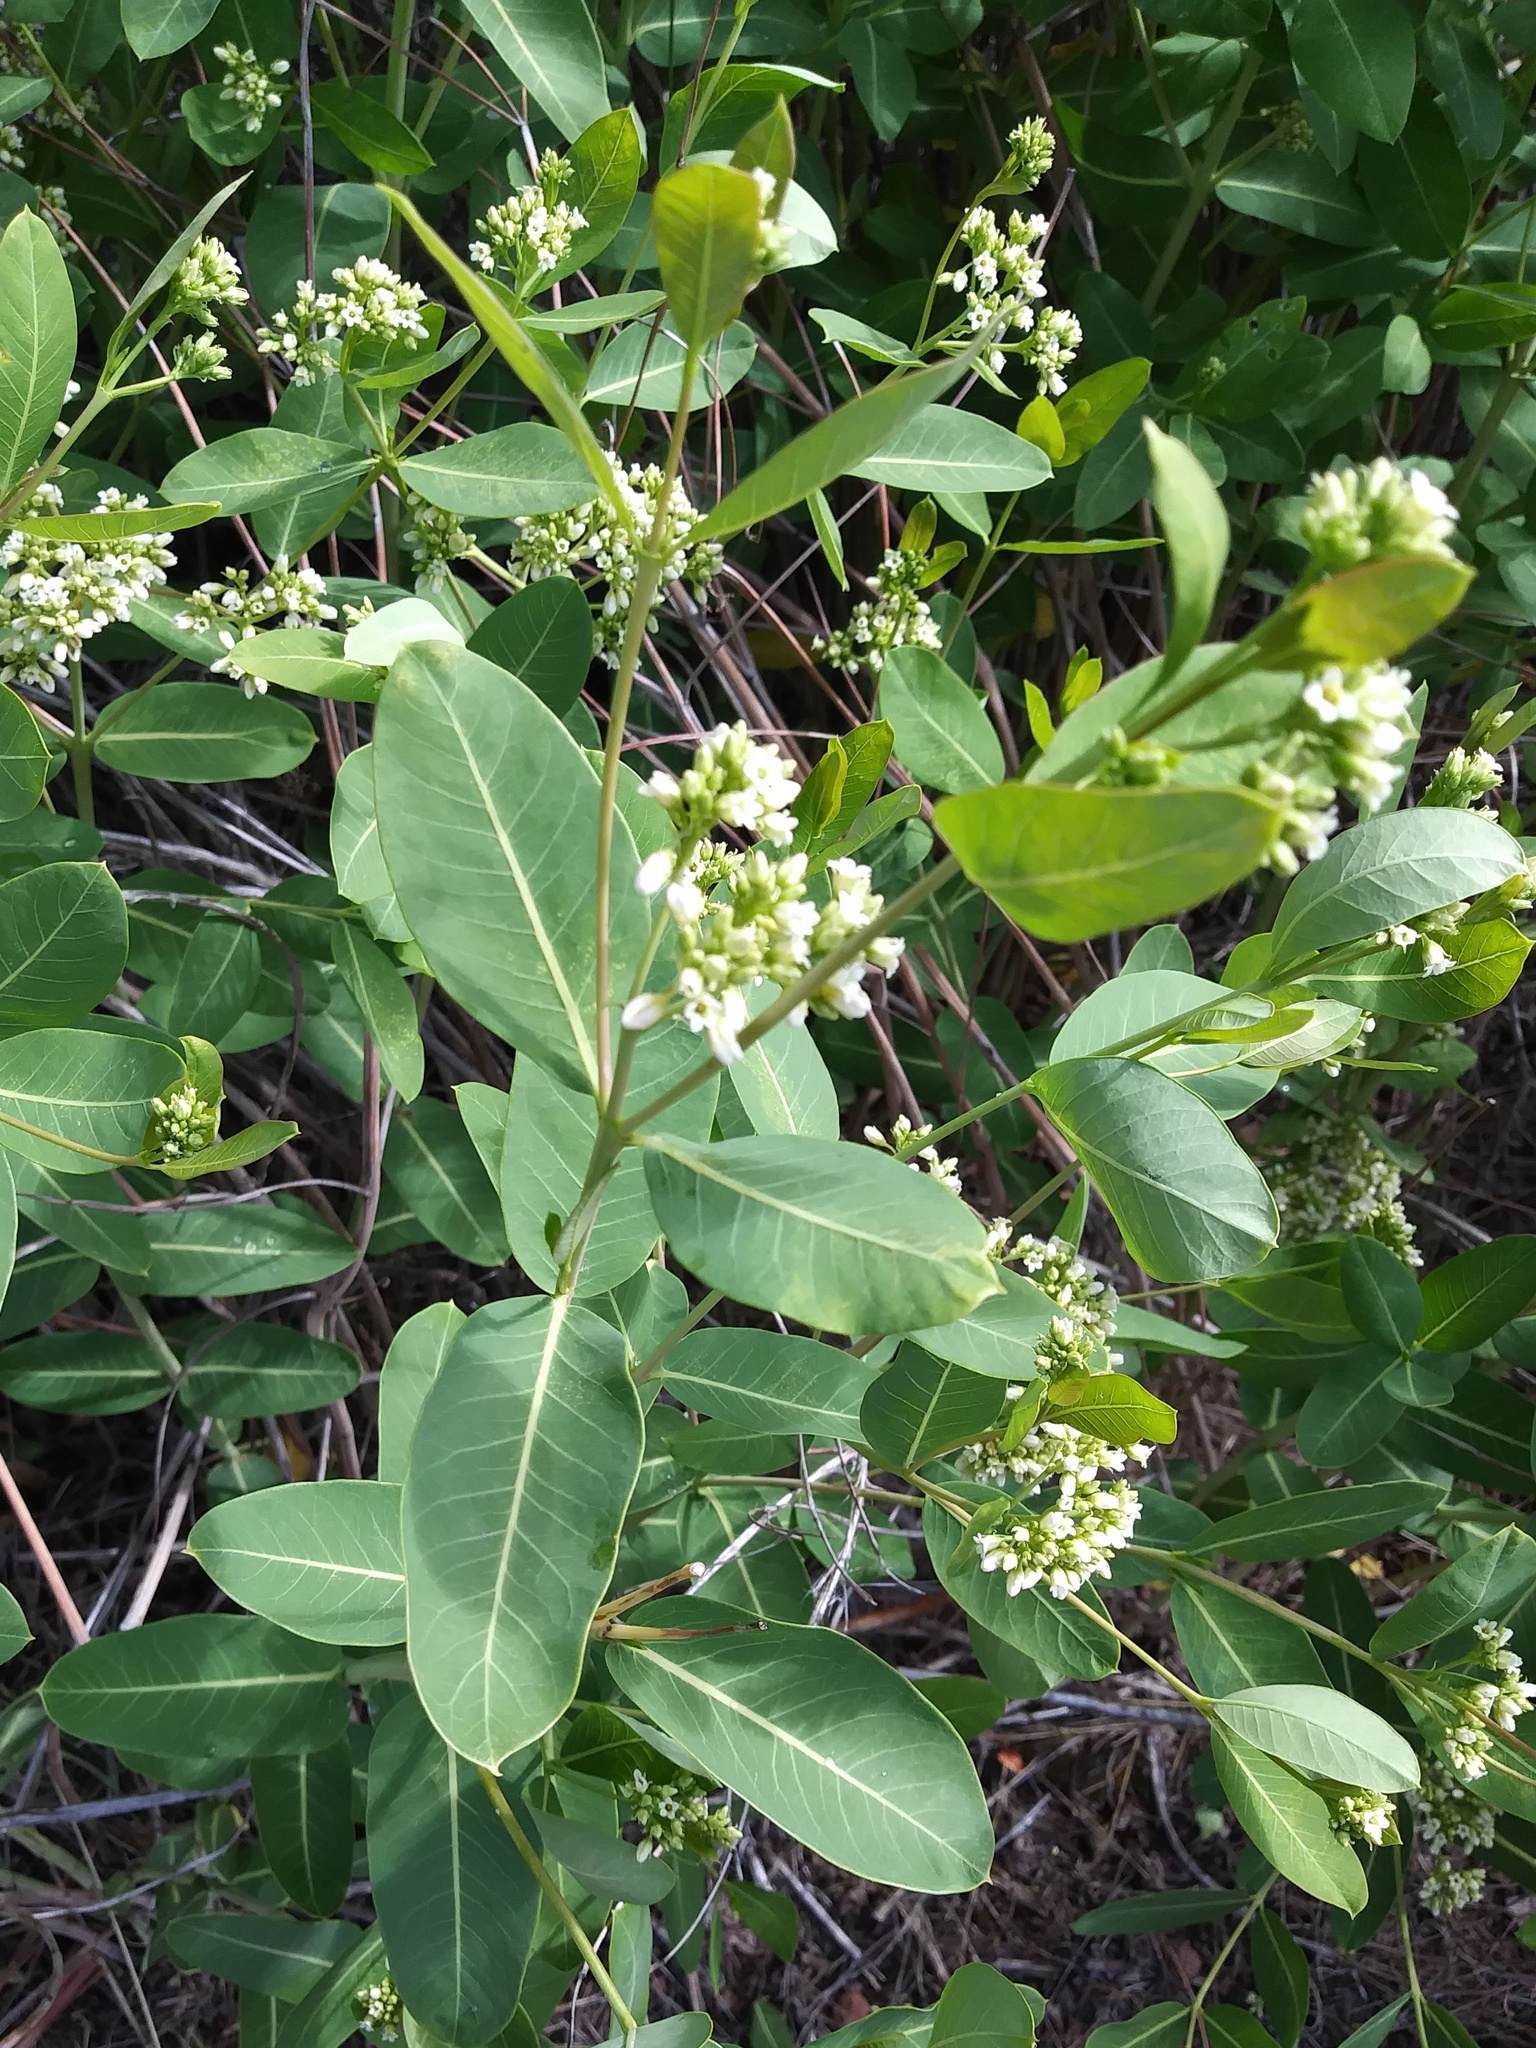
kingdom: Plantae
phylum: Tracheophyta
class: Magnoliopsida
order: Gentianales
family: Apocynaceae
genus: Apocynum
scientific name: Apocynum cannabinum
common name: Hemp dogbane
